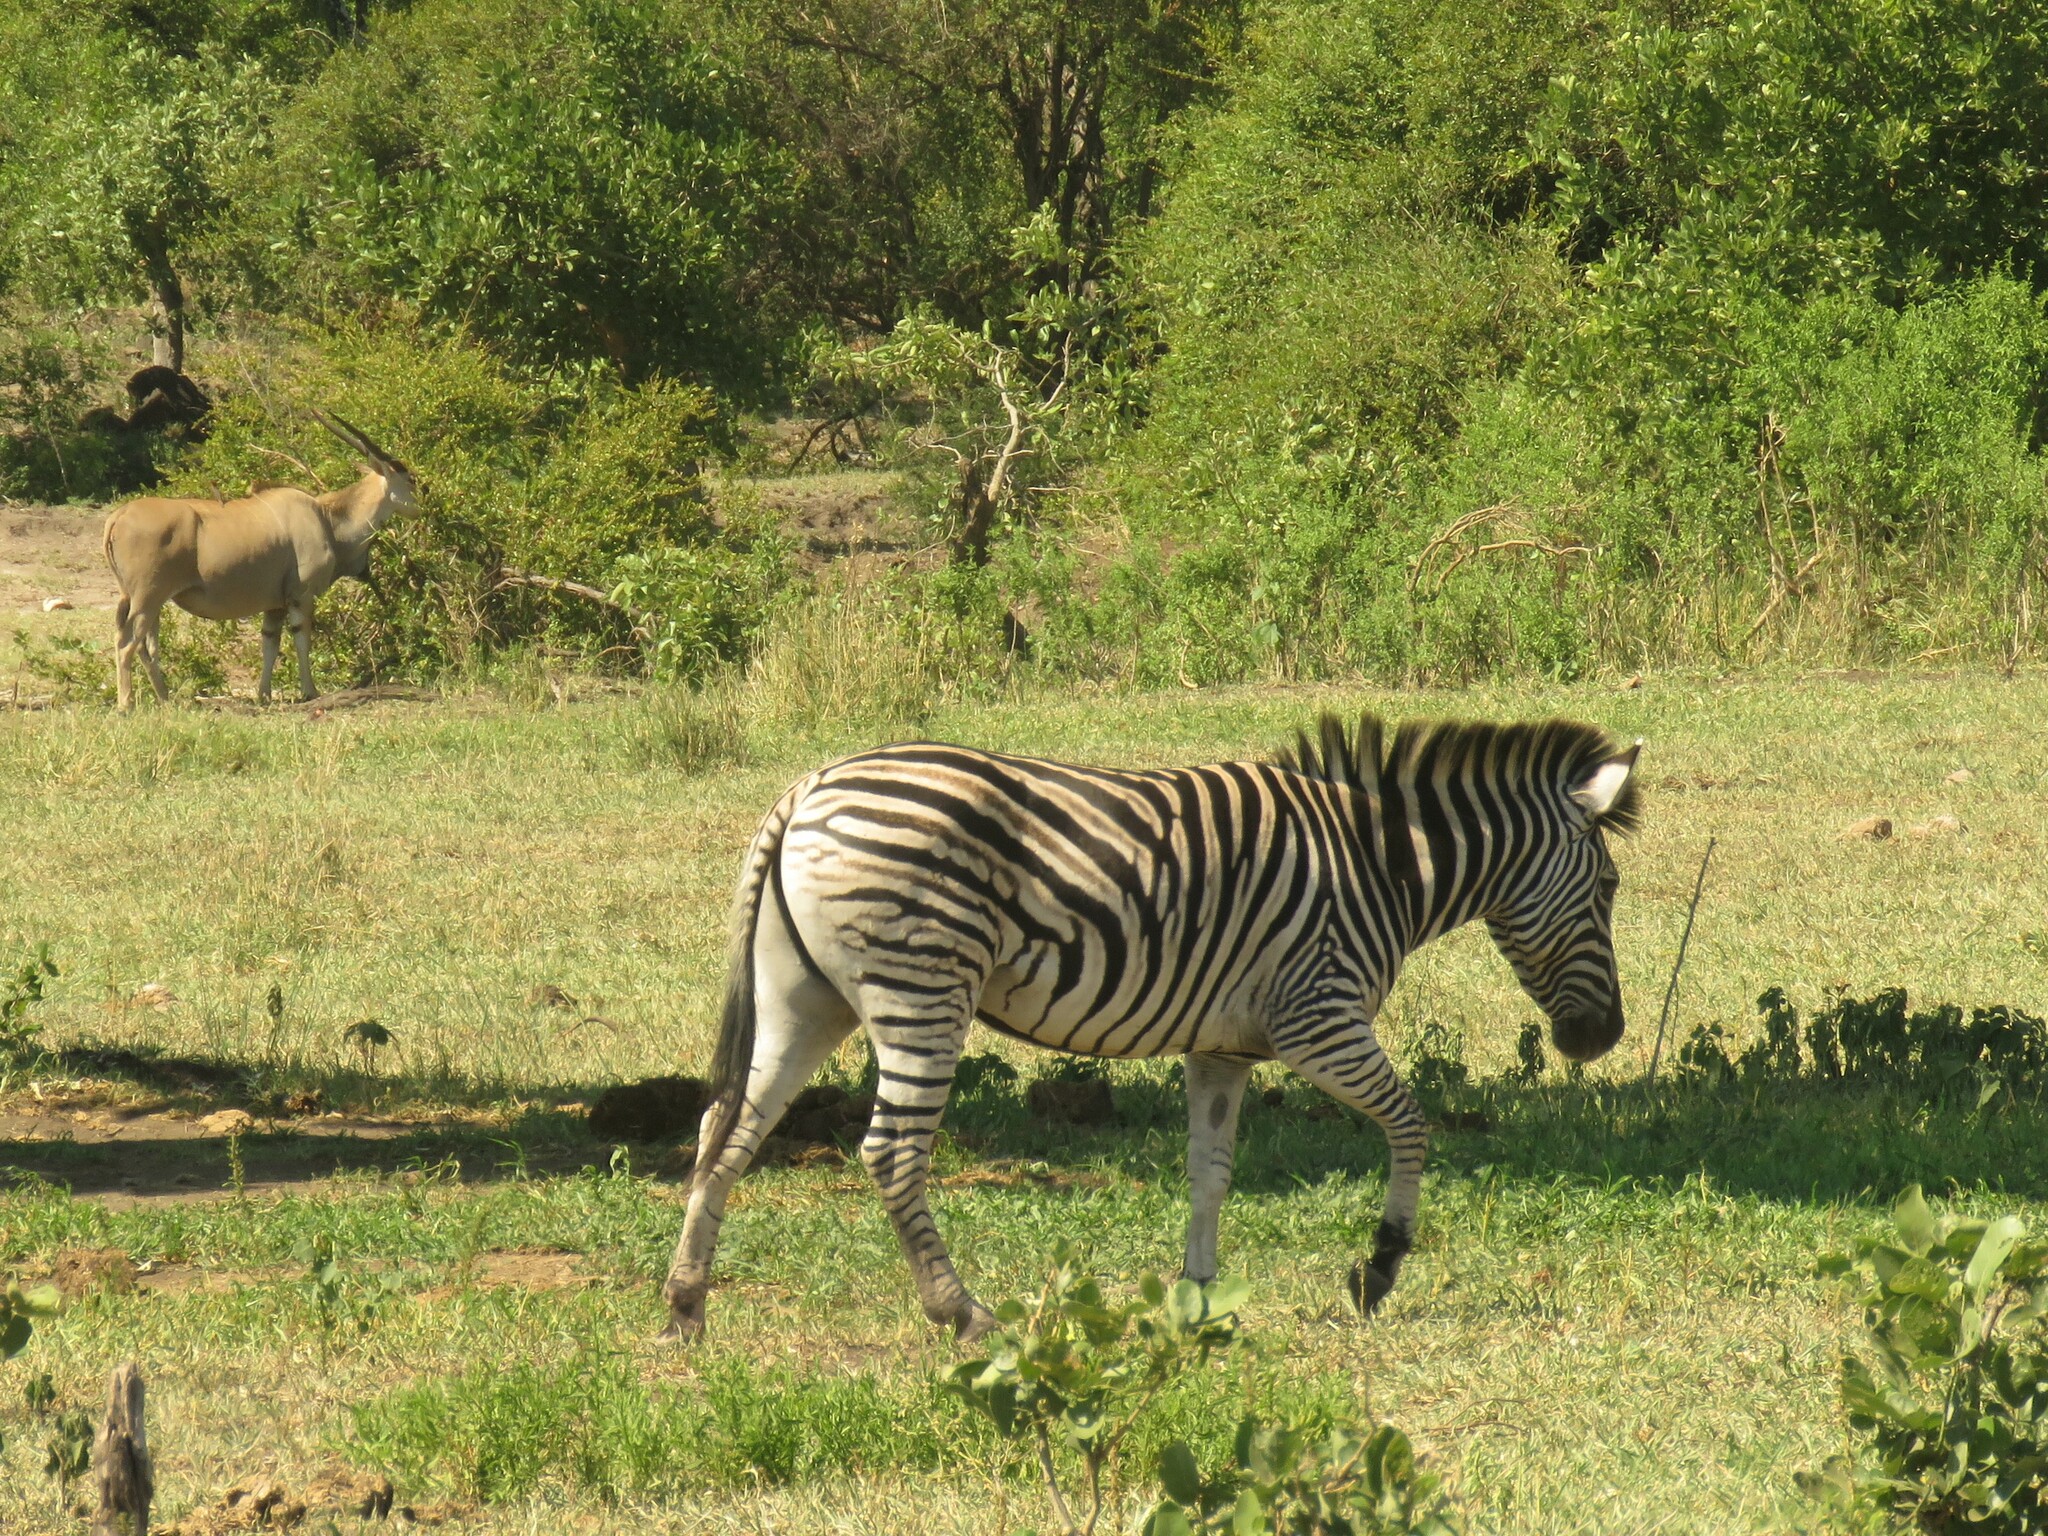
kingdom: Animalia
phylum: Chordata
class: Mammalia
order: Perissodactyla
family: Equidae
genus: Equus
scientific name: Equus quagga
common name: Plains zebra
